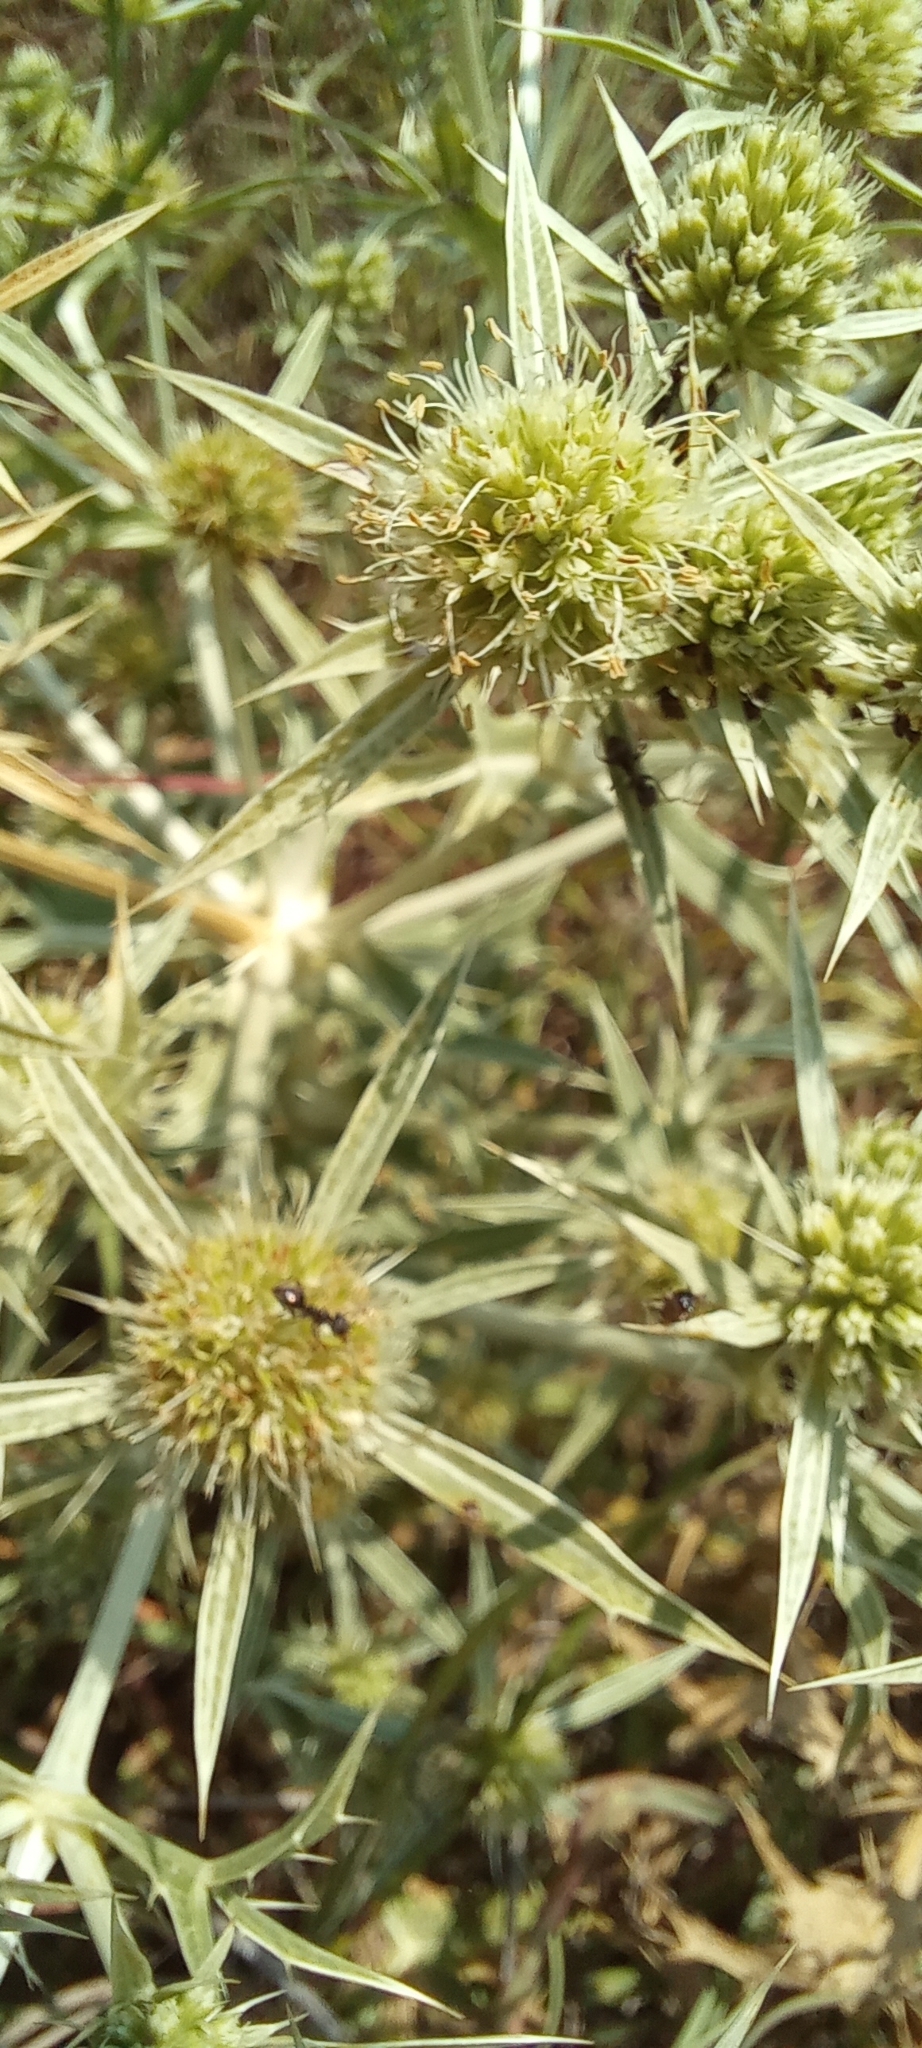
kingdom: Plantae
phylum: Tracheophyta
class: Magnoliopsida
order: Apiales
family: Apiaceae
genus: Eryngium
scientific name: Eryngium campestre
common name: Field eryngo
